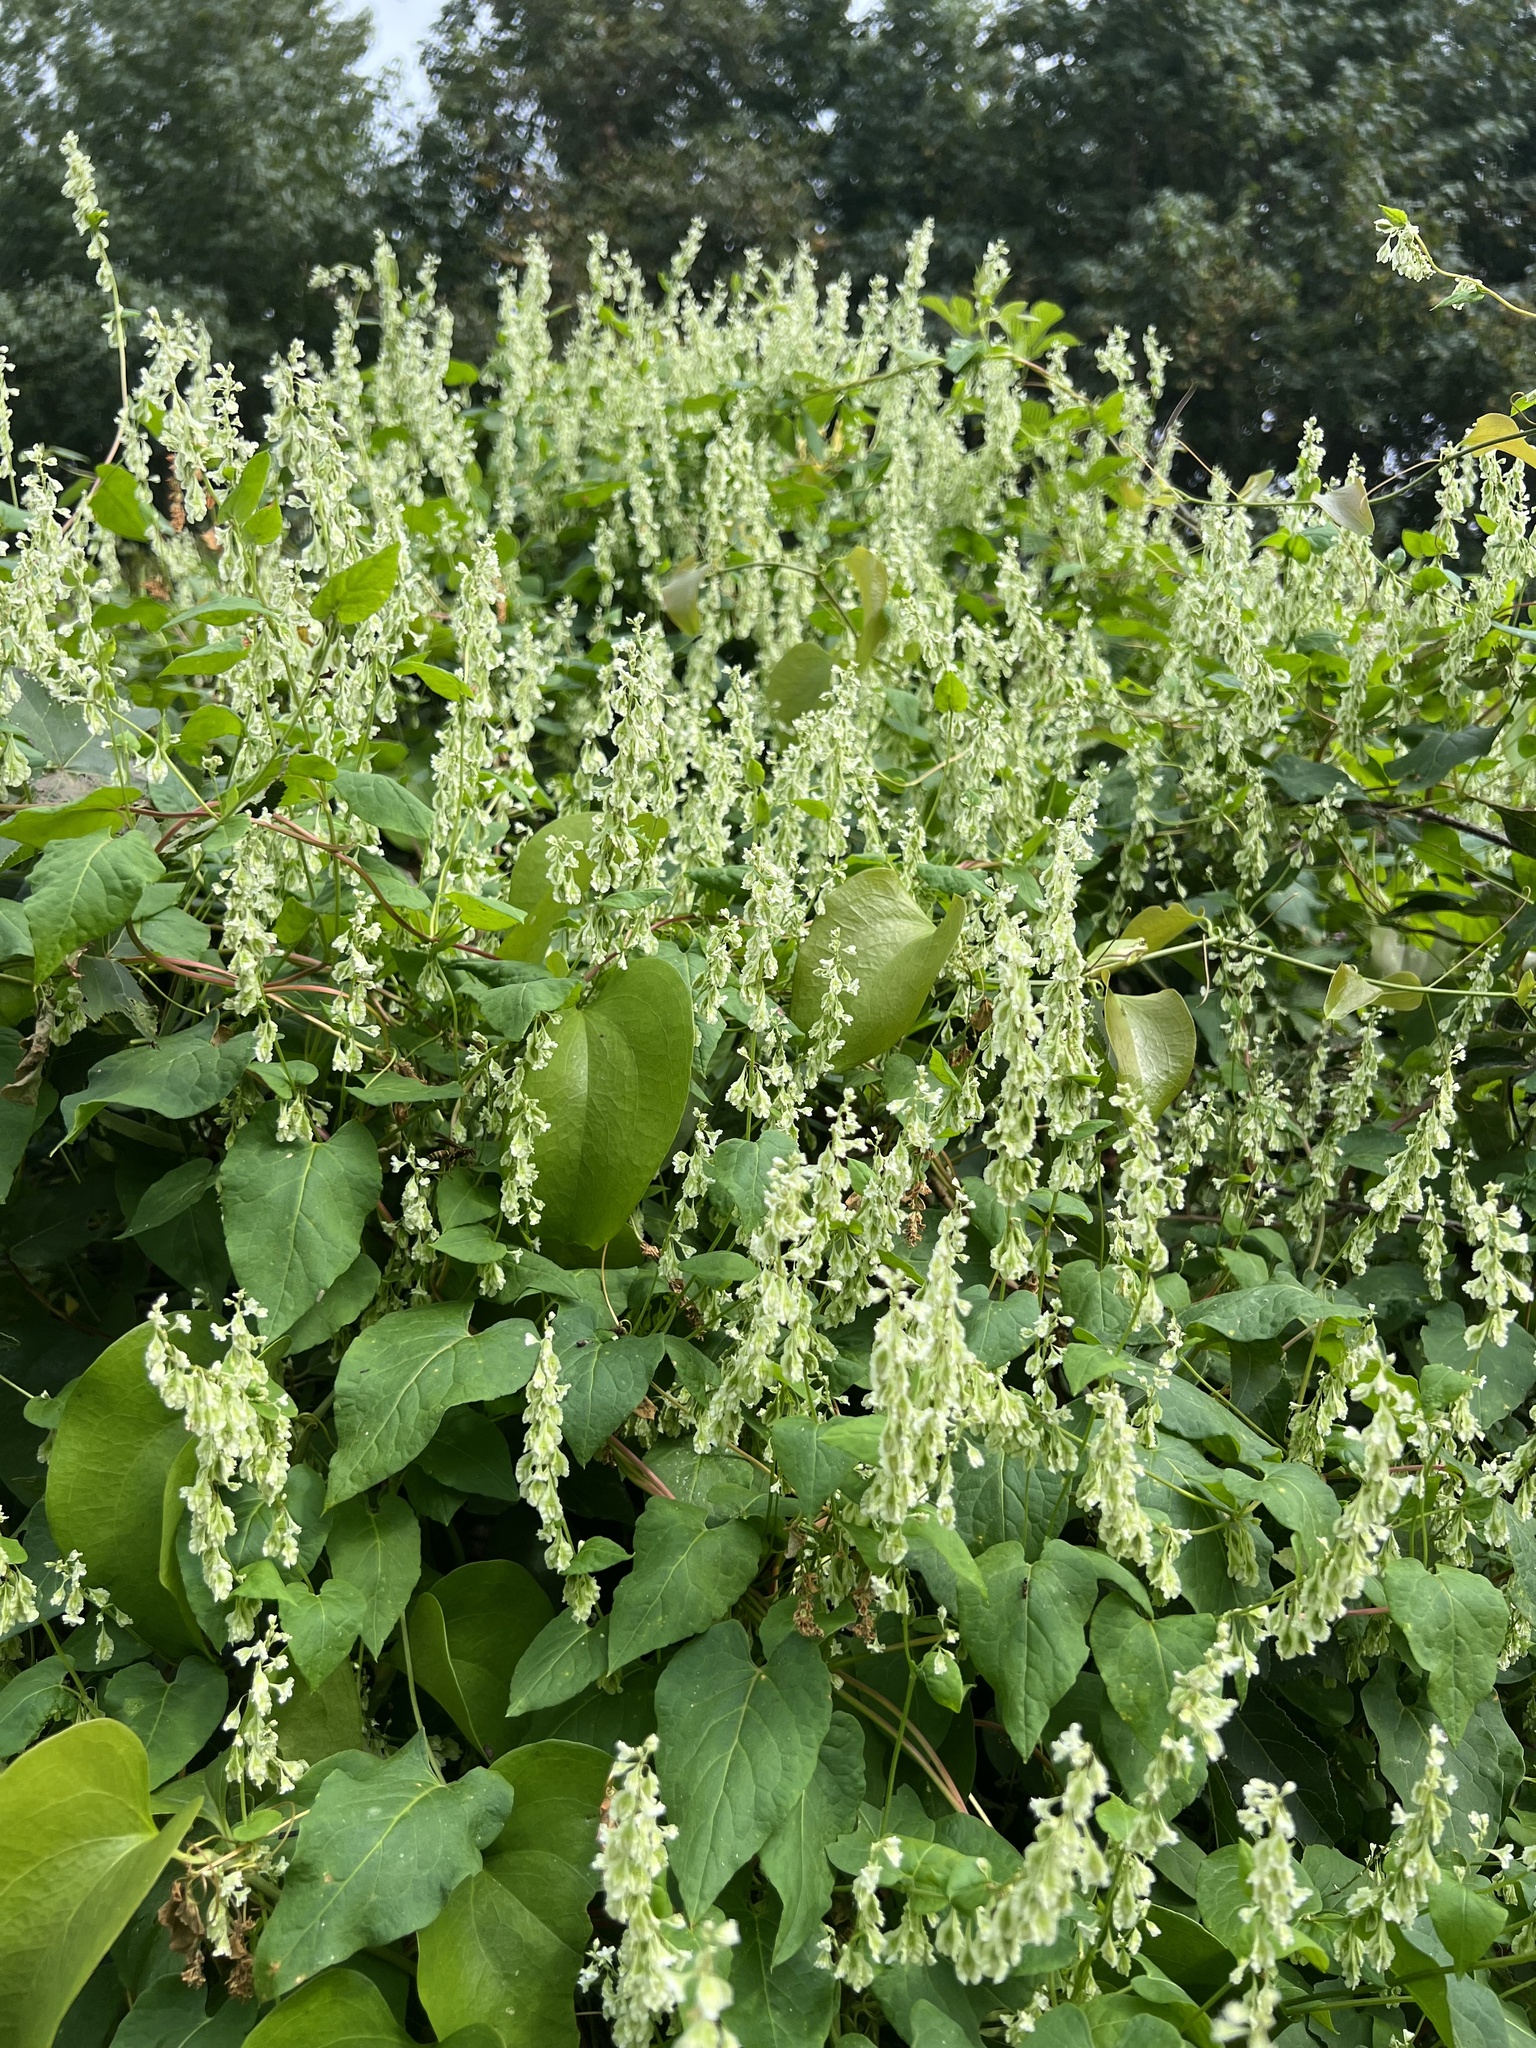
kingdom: Plantae
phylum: Tracheophyta
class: Magnoliopsida
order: Caryophyllales
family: Polygonaceae
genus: Fallopia
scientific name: Fallopia scandens
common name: Climbing false buckwheat
